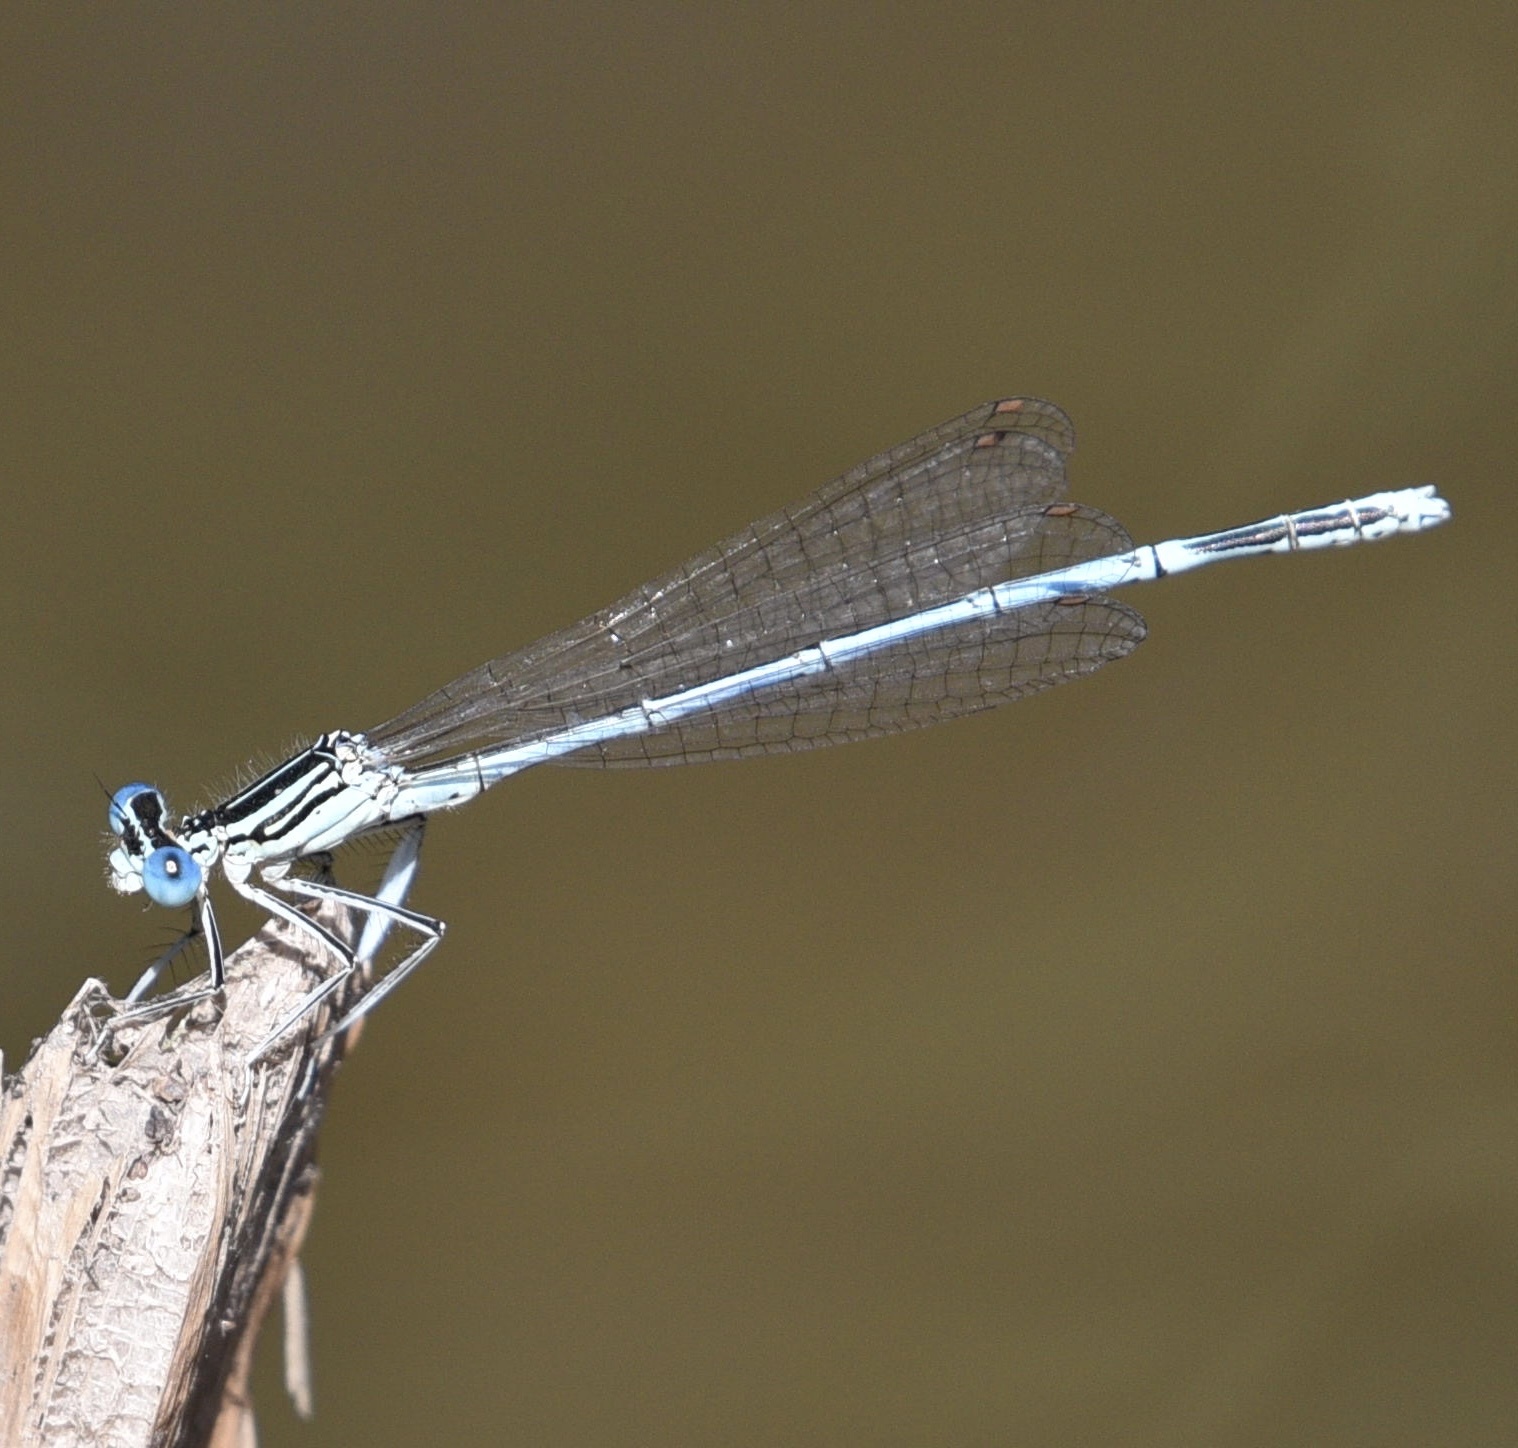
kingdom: Animalia
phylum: Arthropoda
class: Insecta
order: Odonata
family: Platycnemididae
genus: Platycnemis
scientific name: Platycnemis pennipes
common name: White-legged damselfly
